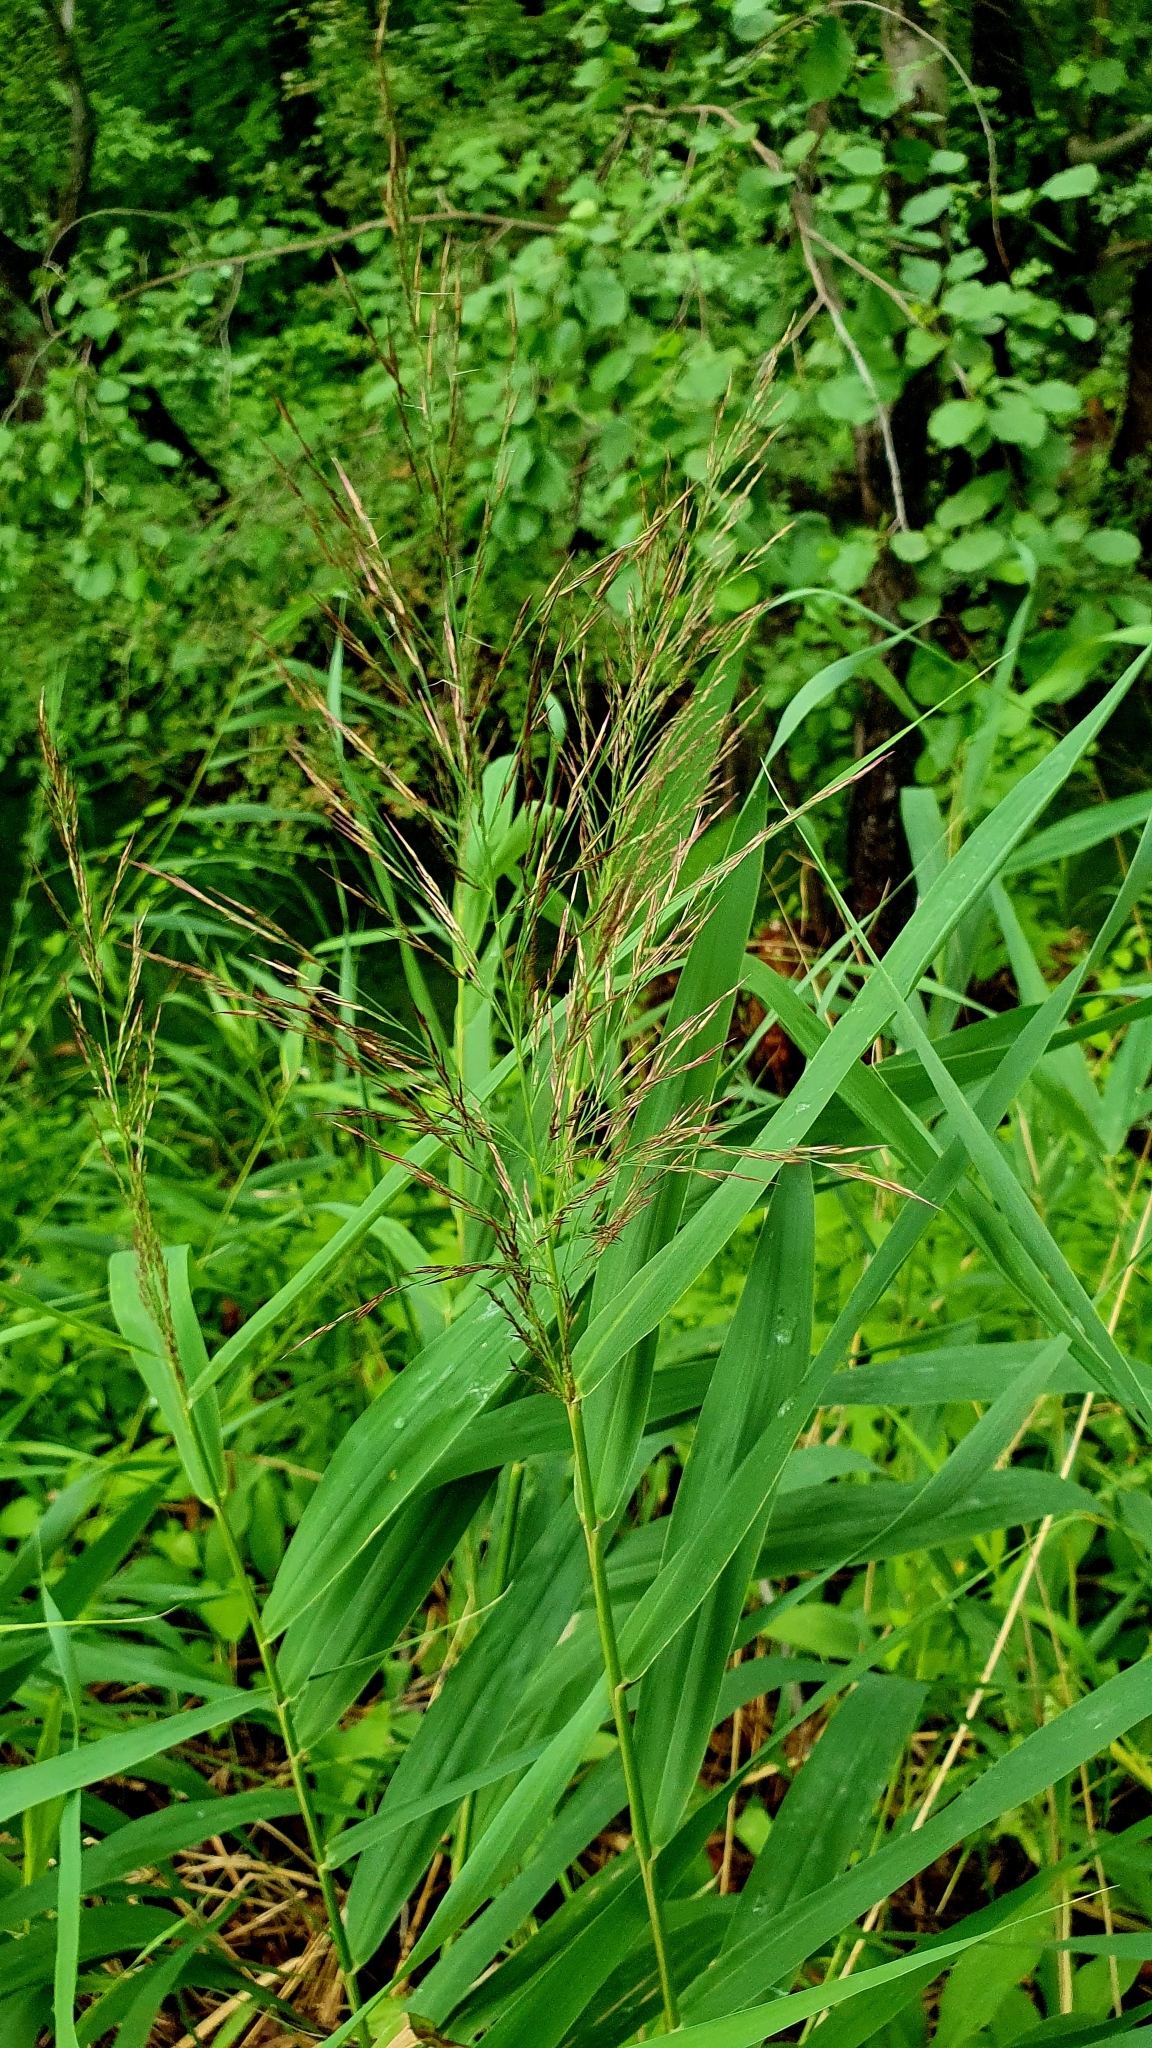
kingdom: Plantae
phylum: Tracheophyta
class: Liliopsida
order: Poales
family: Poaceae
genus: Phragmites
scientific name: Phragmites australis
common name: Common reed
